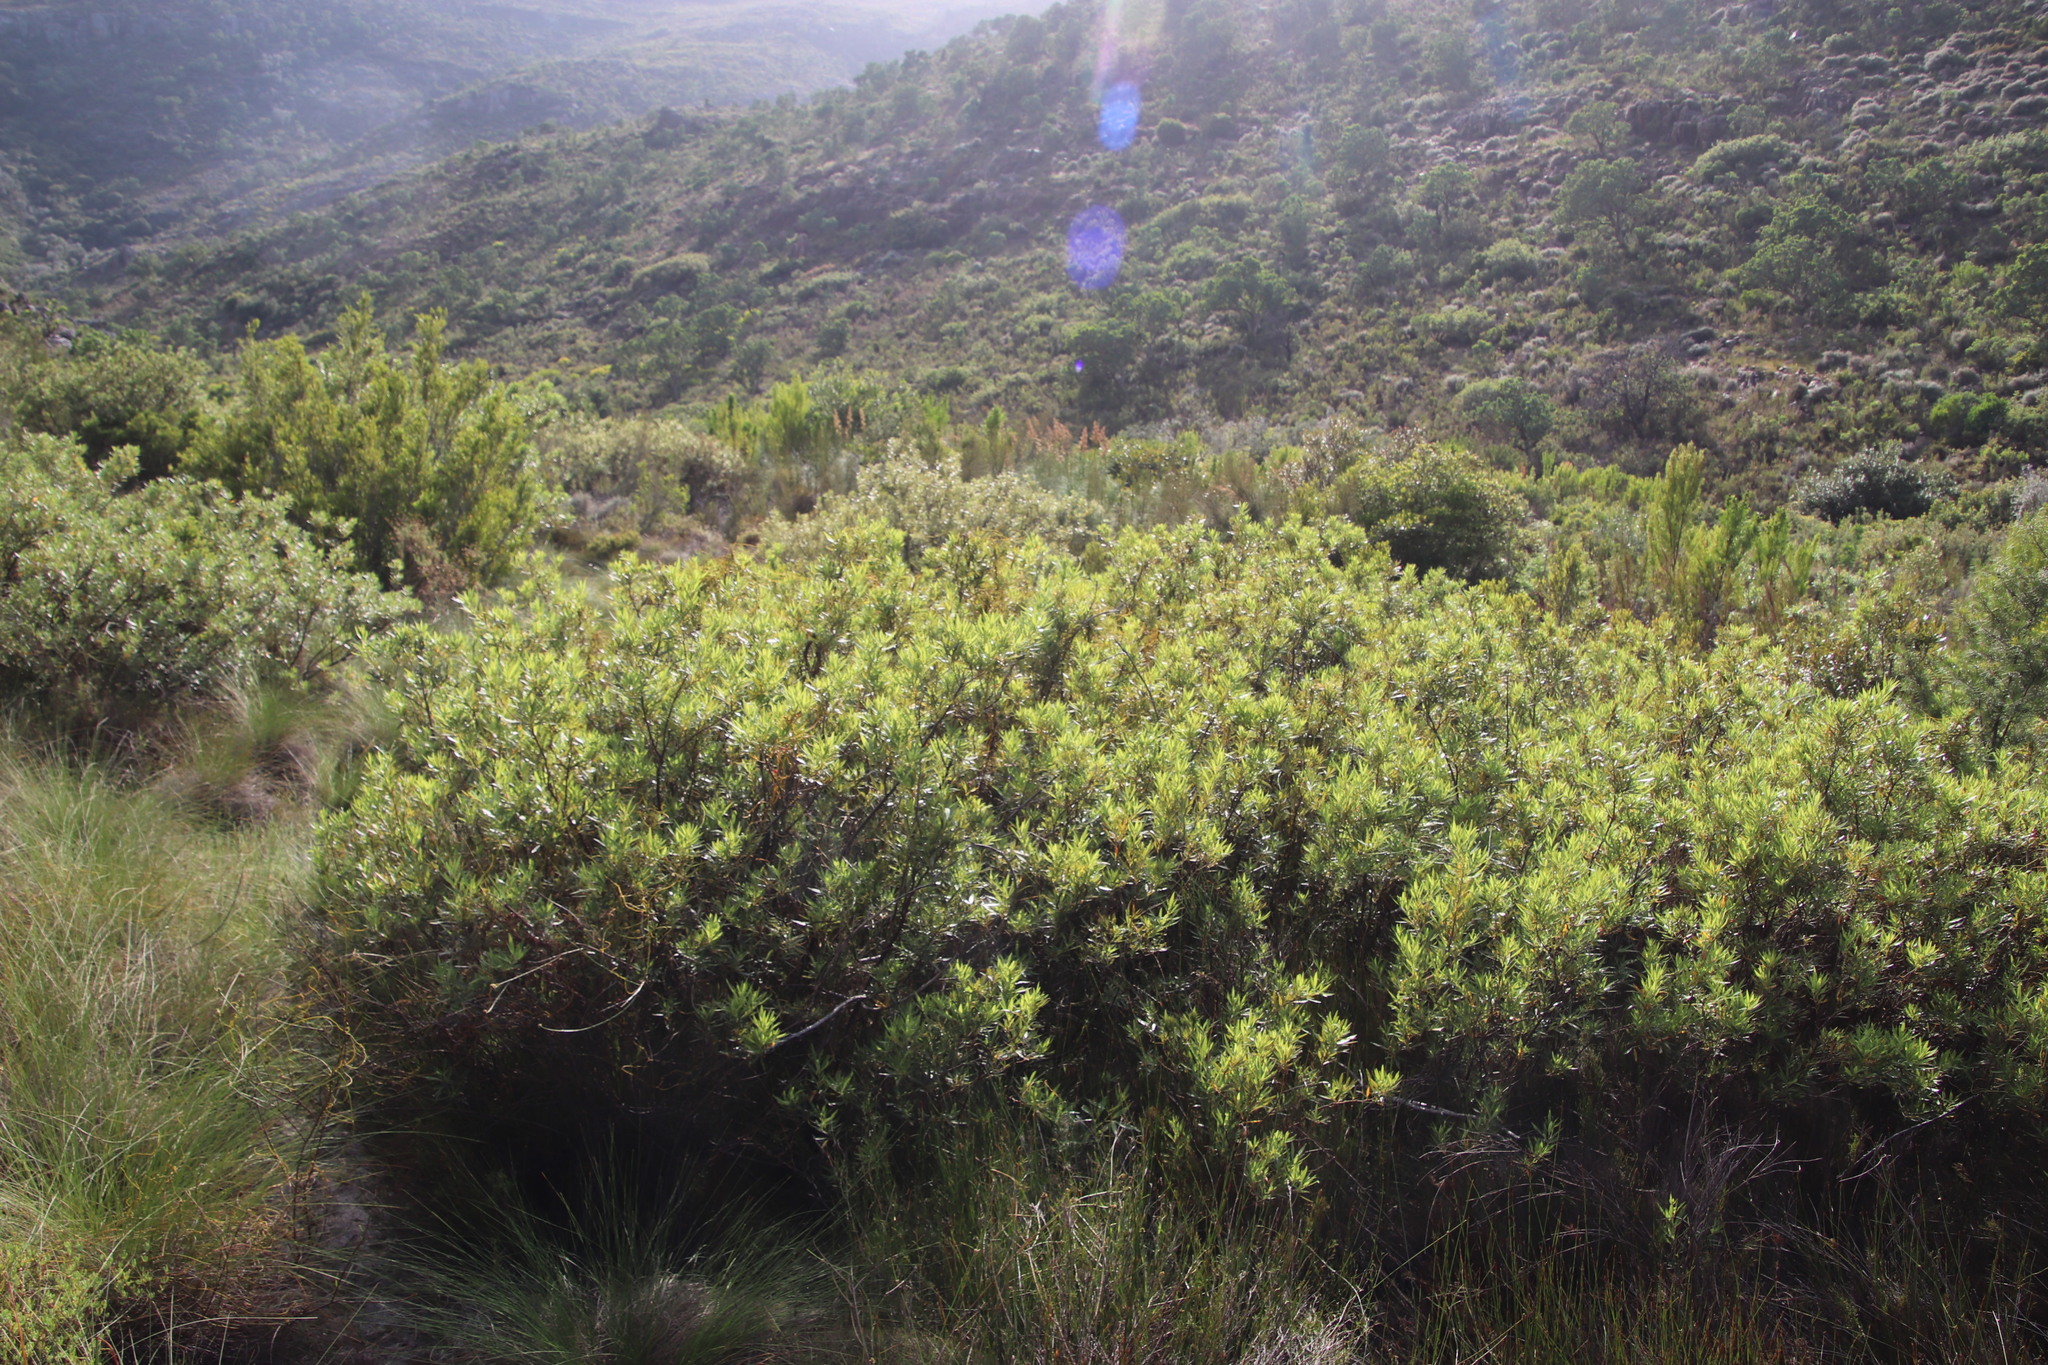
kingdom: Plantae
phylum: Tracheophyta
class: Magnoliopsida
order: Sapindales
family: Anacardiaceae
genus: Searsia
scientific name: Searsia angustifolia
